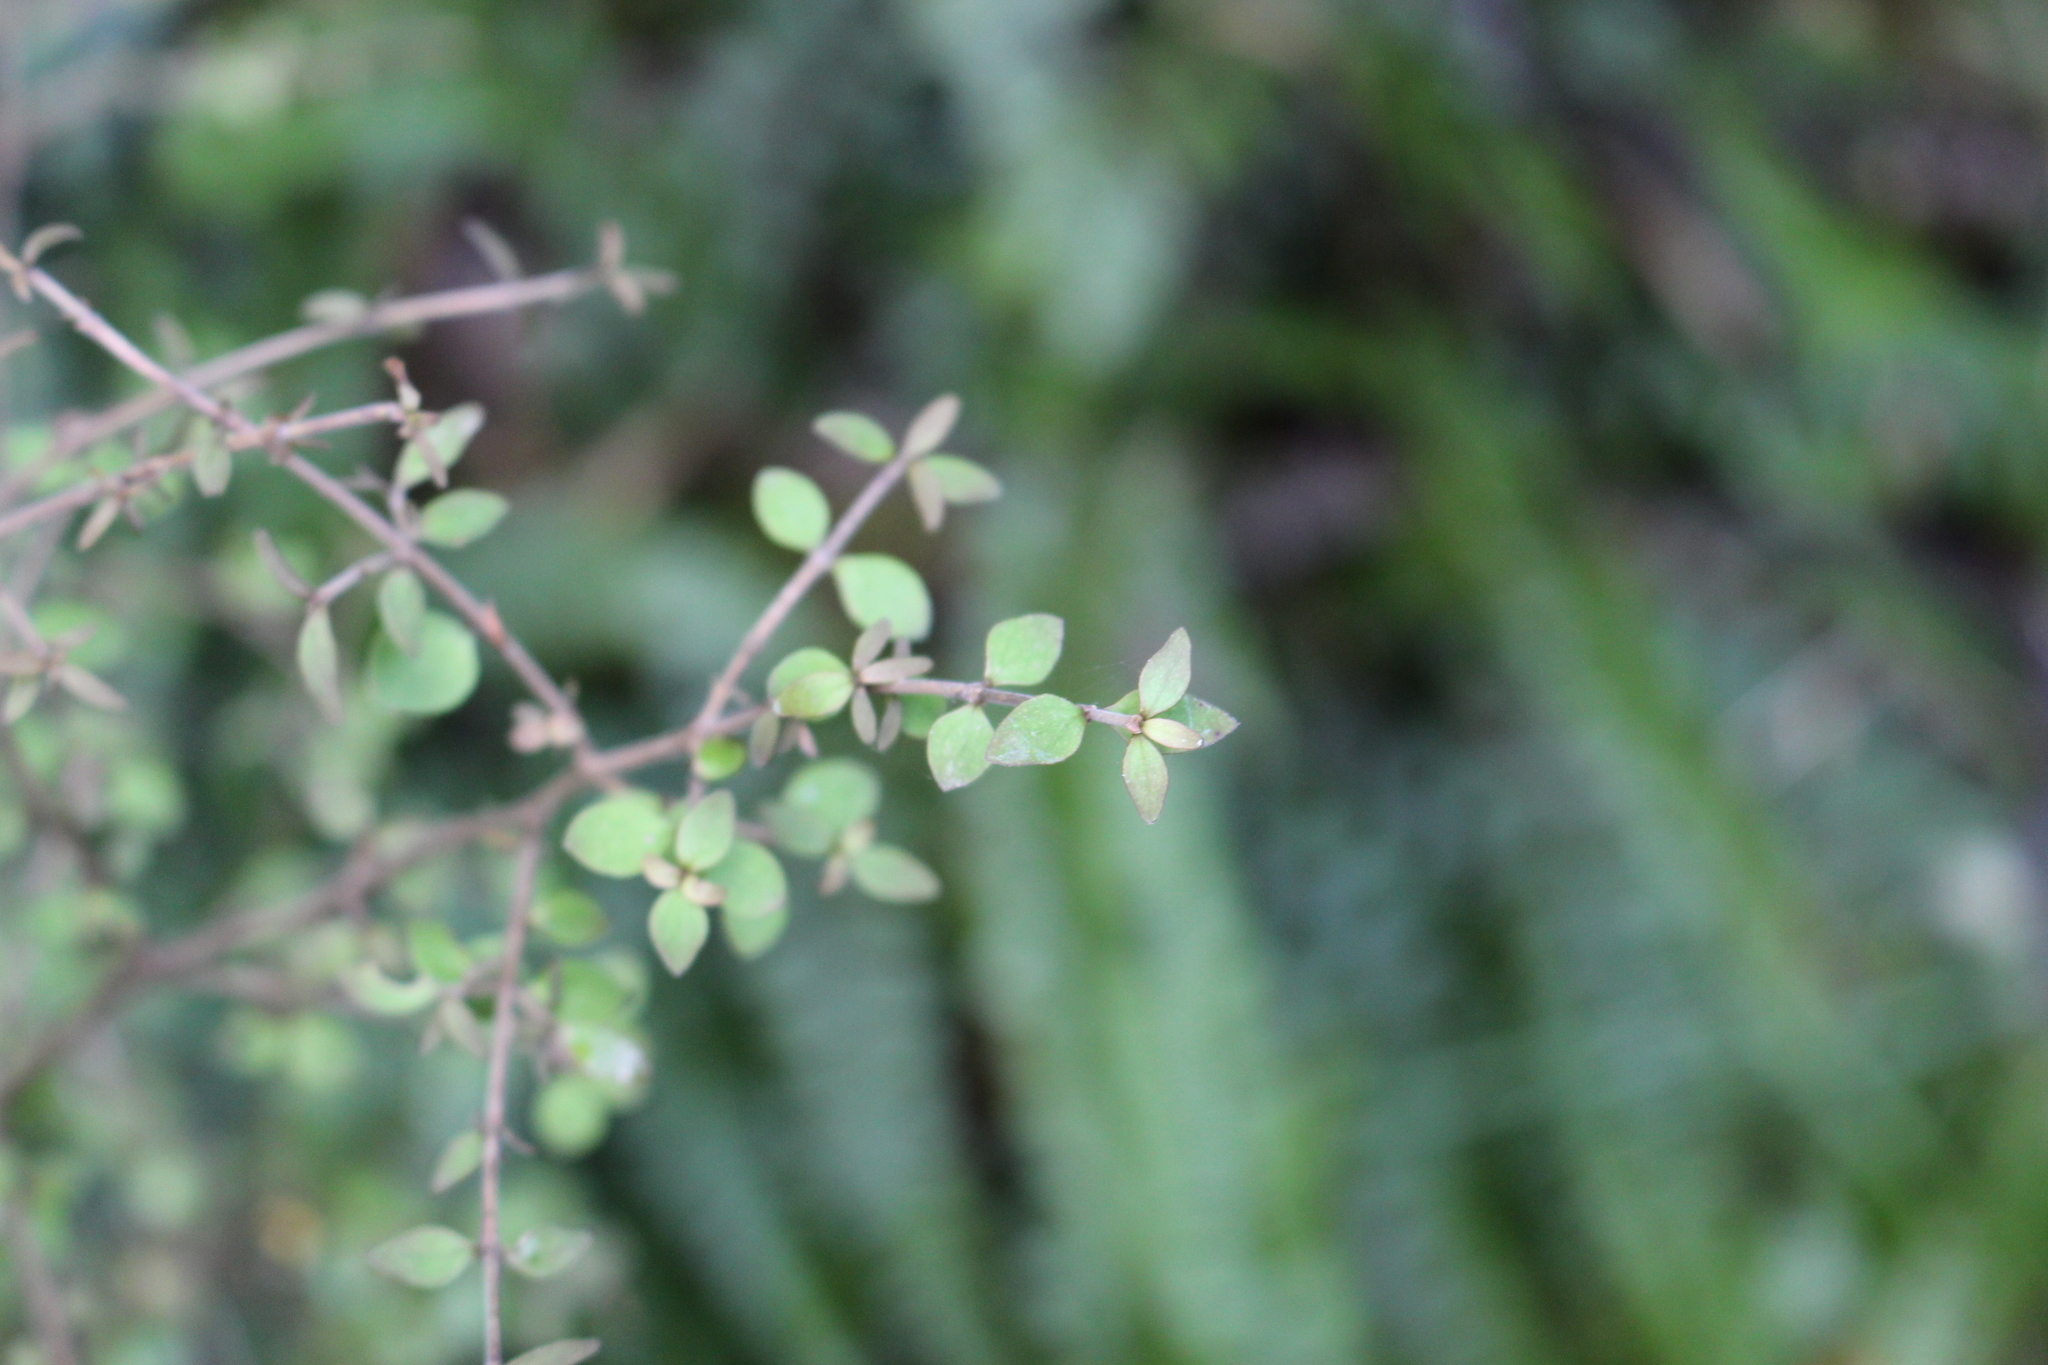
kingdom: Plantae
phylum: Tracheophyta
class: Magnoliopsida
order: Gentianales
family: Rubiaceae
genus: Coprosma
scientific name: Coprosma rhamnoides
